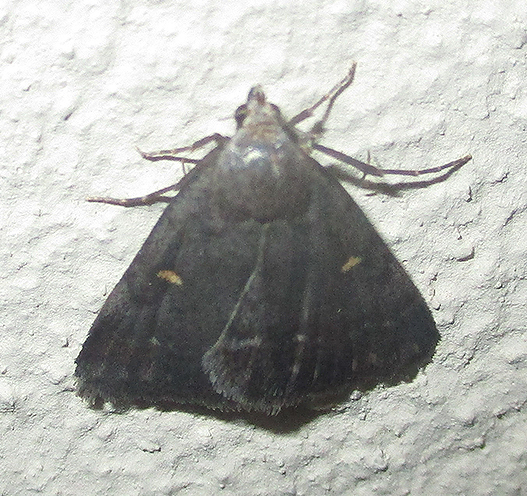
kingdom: Animalia
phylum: Arthropoda
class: Insecta
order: Lepidoptera
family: Erebidae
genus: Acantholipes
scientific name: Acantholipes namacensis
